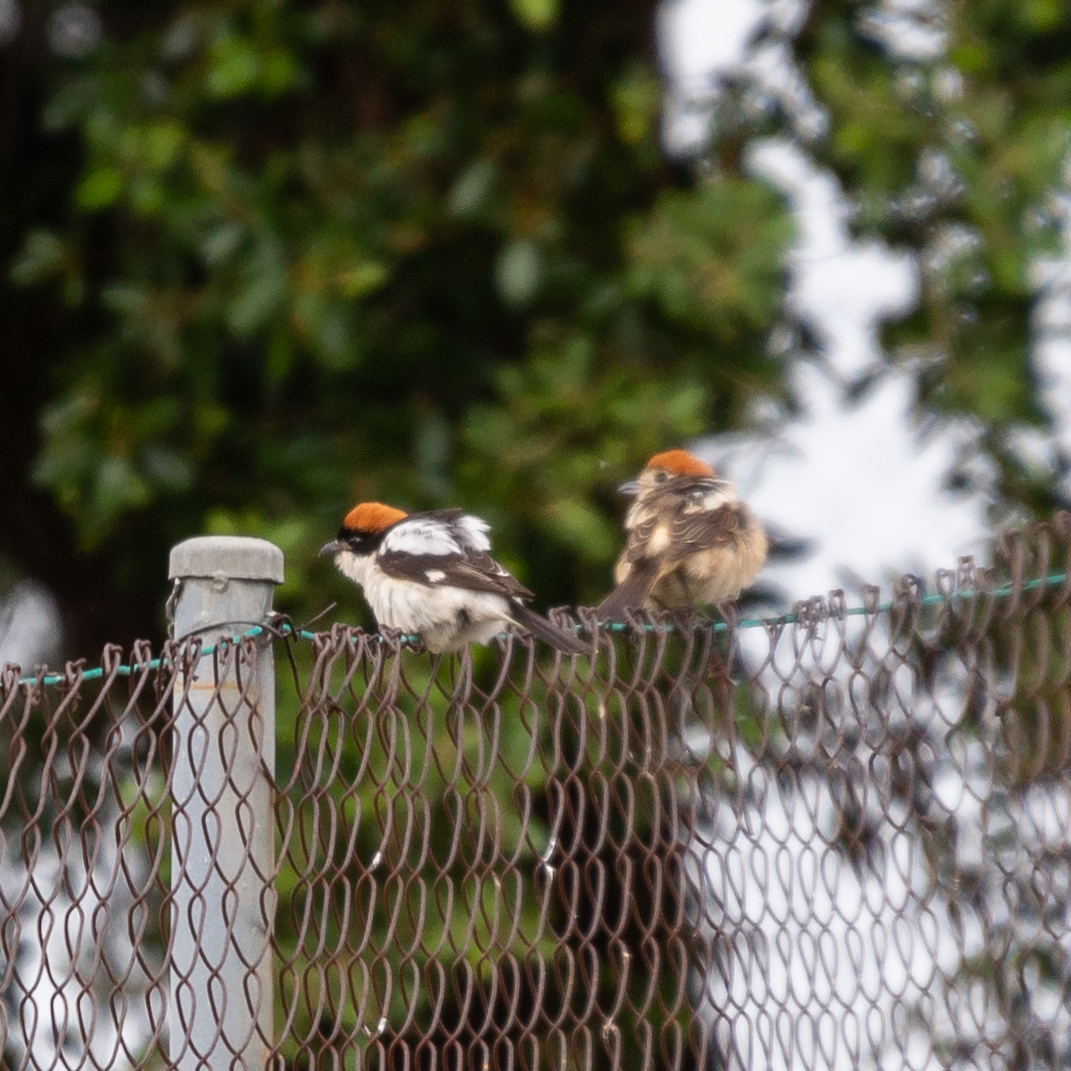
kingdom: Animalia
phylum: Chordata
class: Aves
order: Passeriformes
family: Laniidae
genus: Lanius
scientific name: Lanius senator
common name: Woodchat shrike
